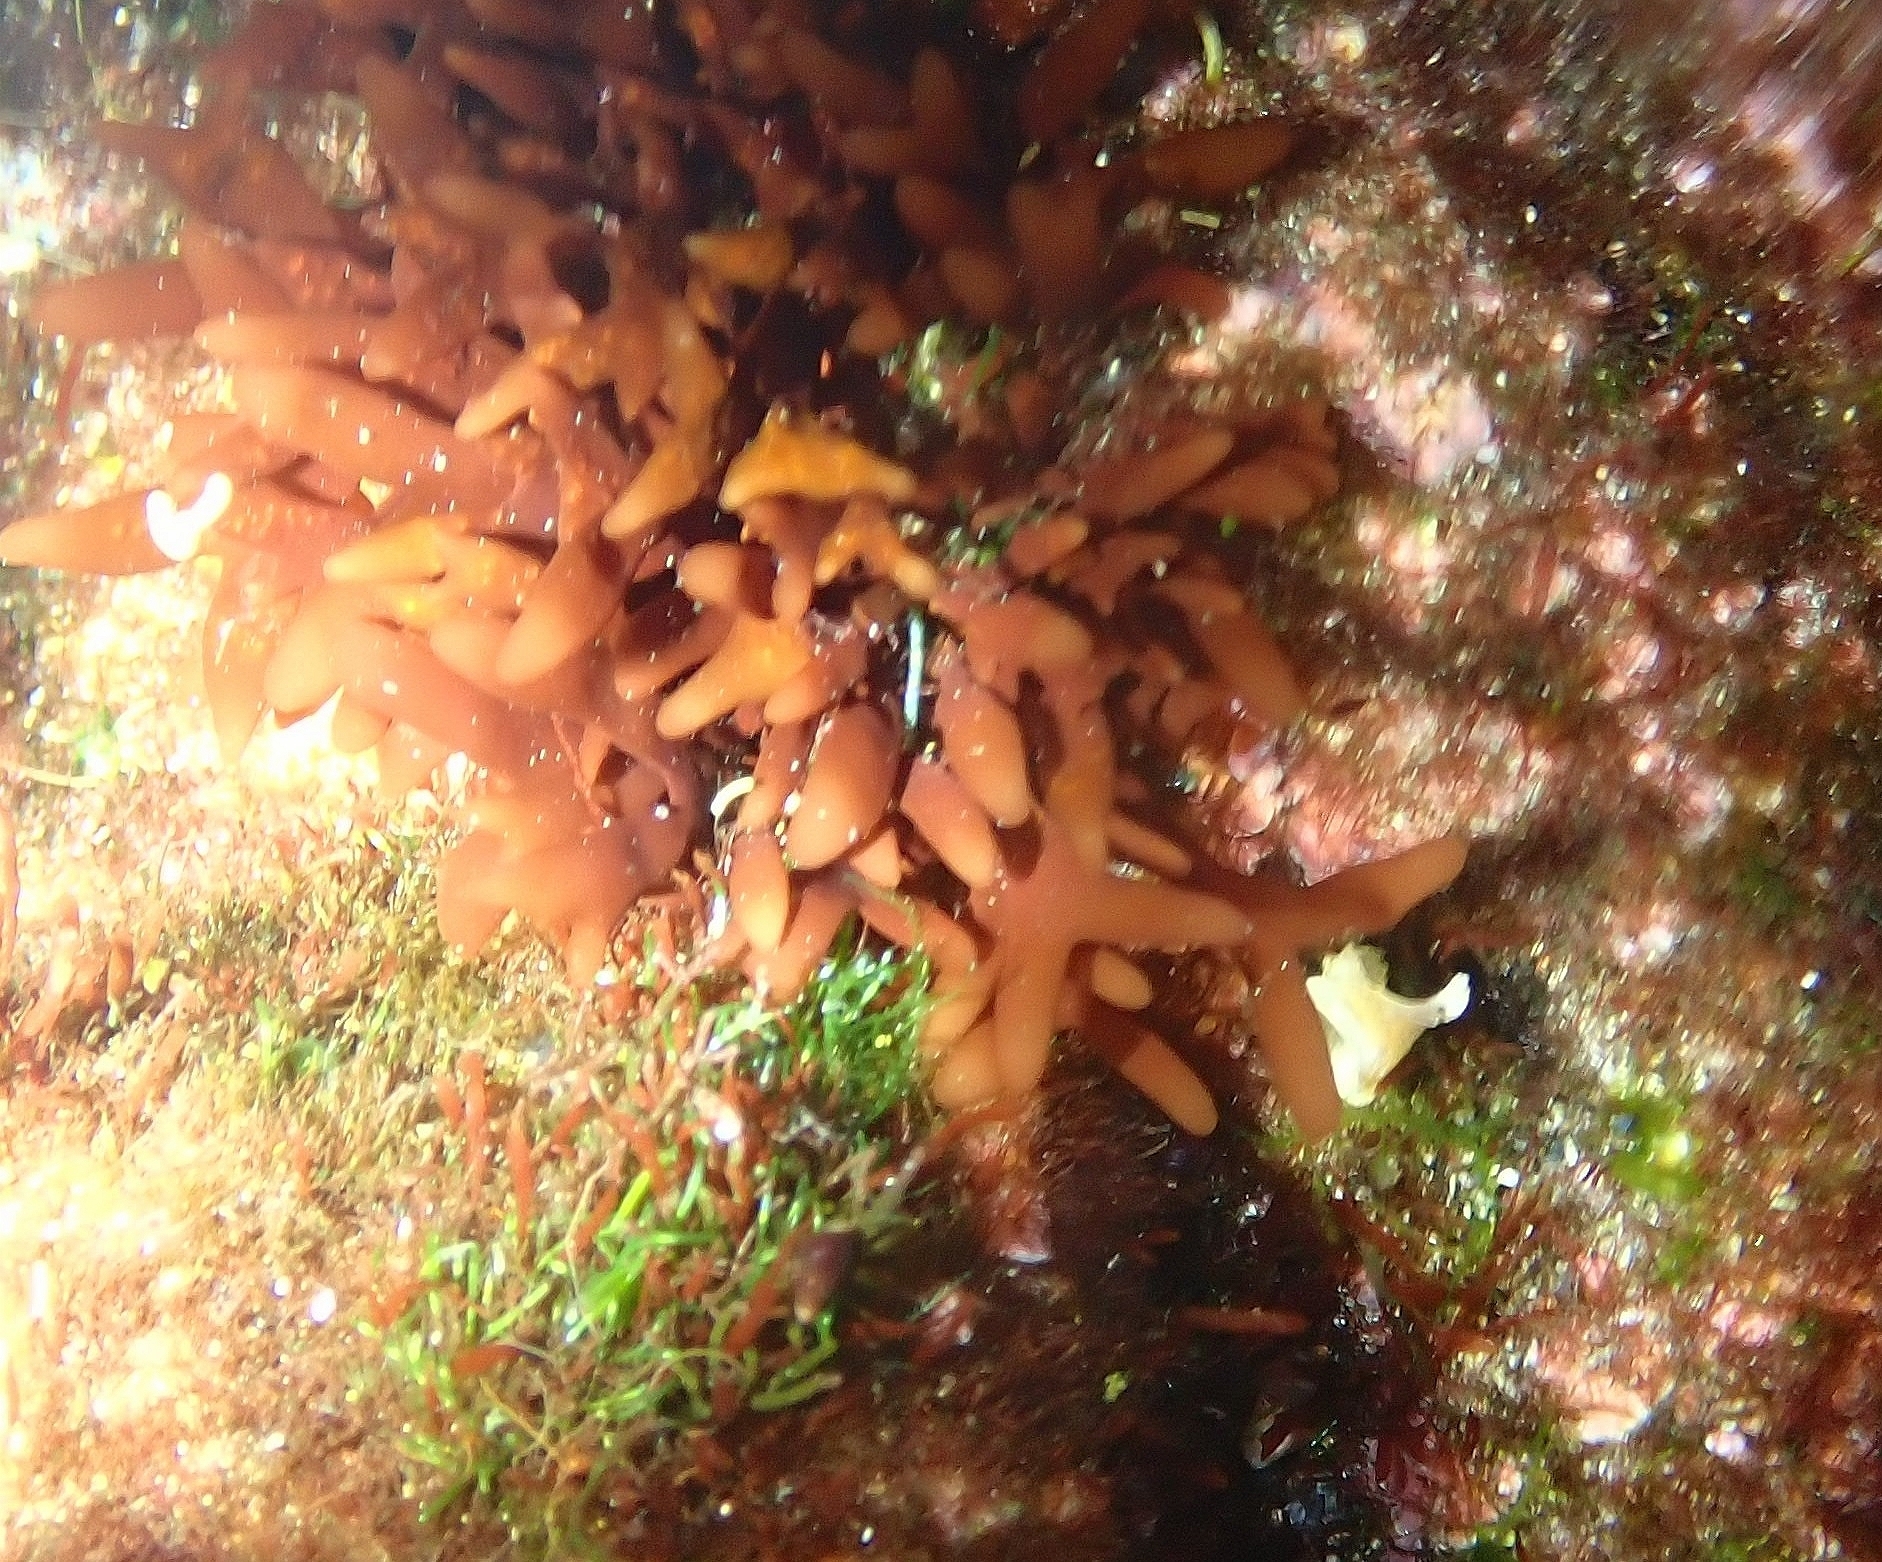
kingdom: Plantae
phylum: Rhodophyta
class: Florideophyceae
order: Ceramiales
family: Callithamniaceae
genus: Gaillona
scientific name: Gaillona Grateloupia imbricata
